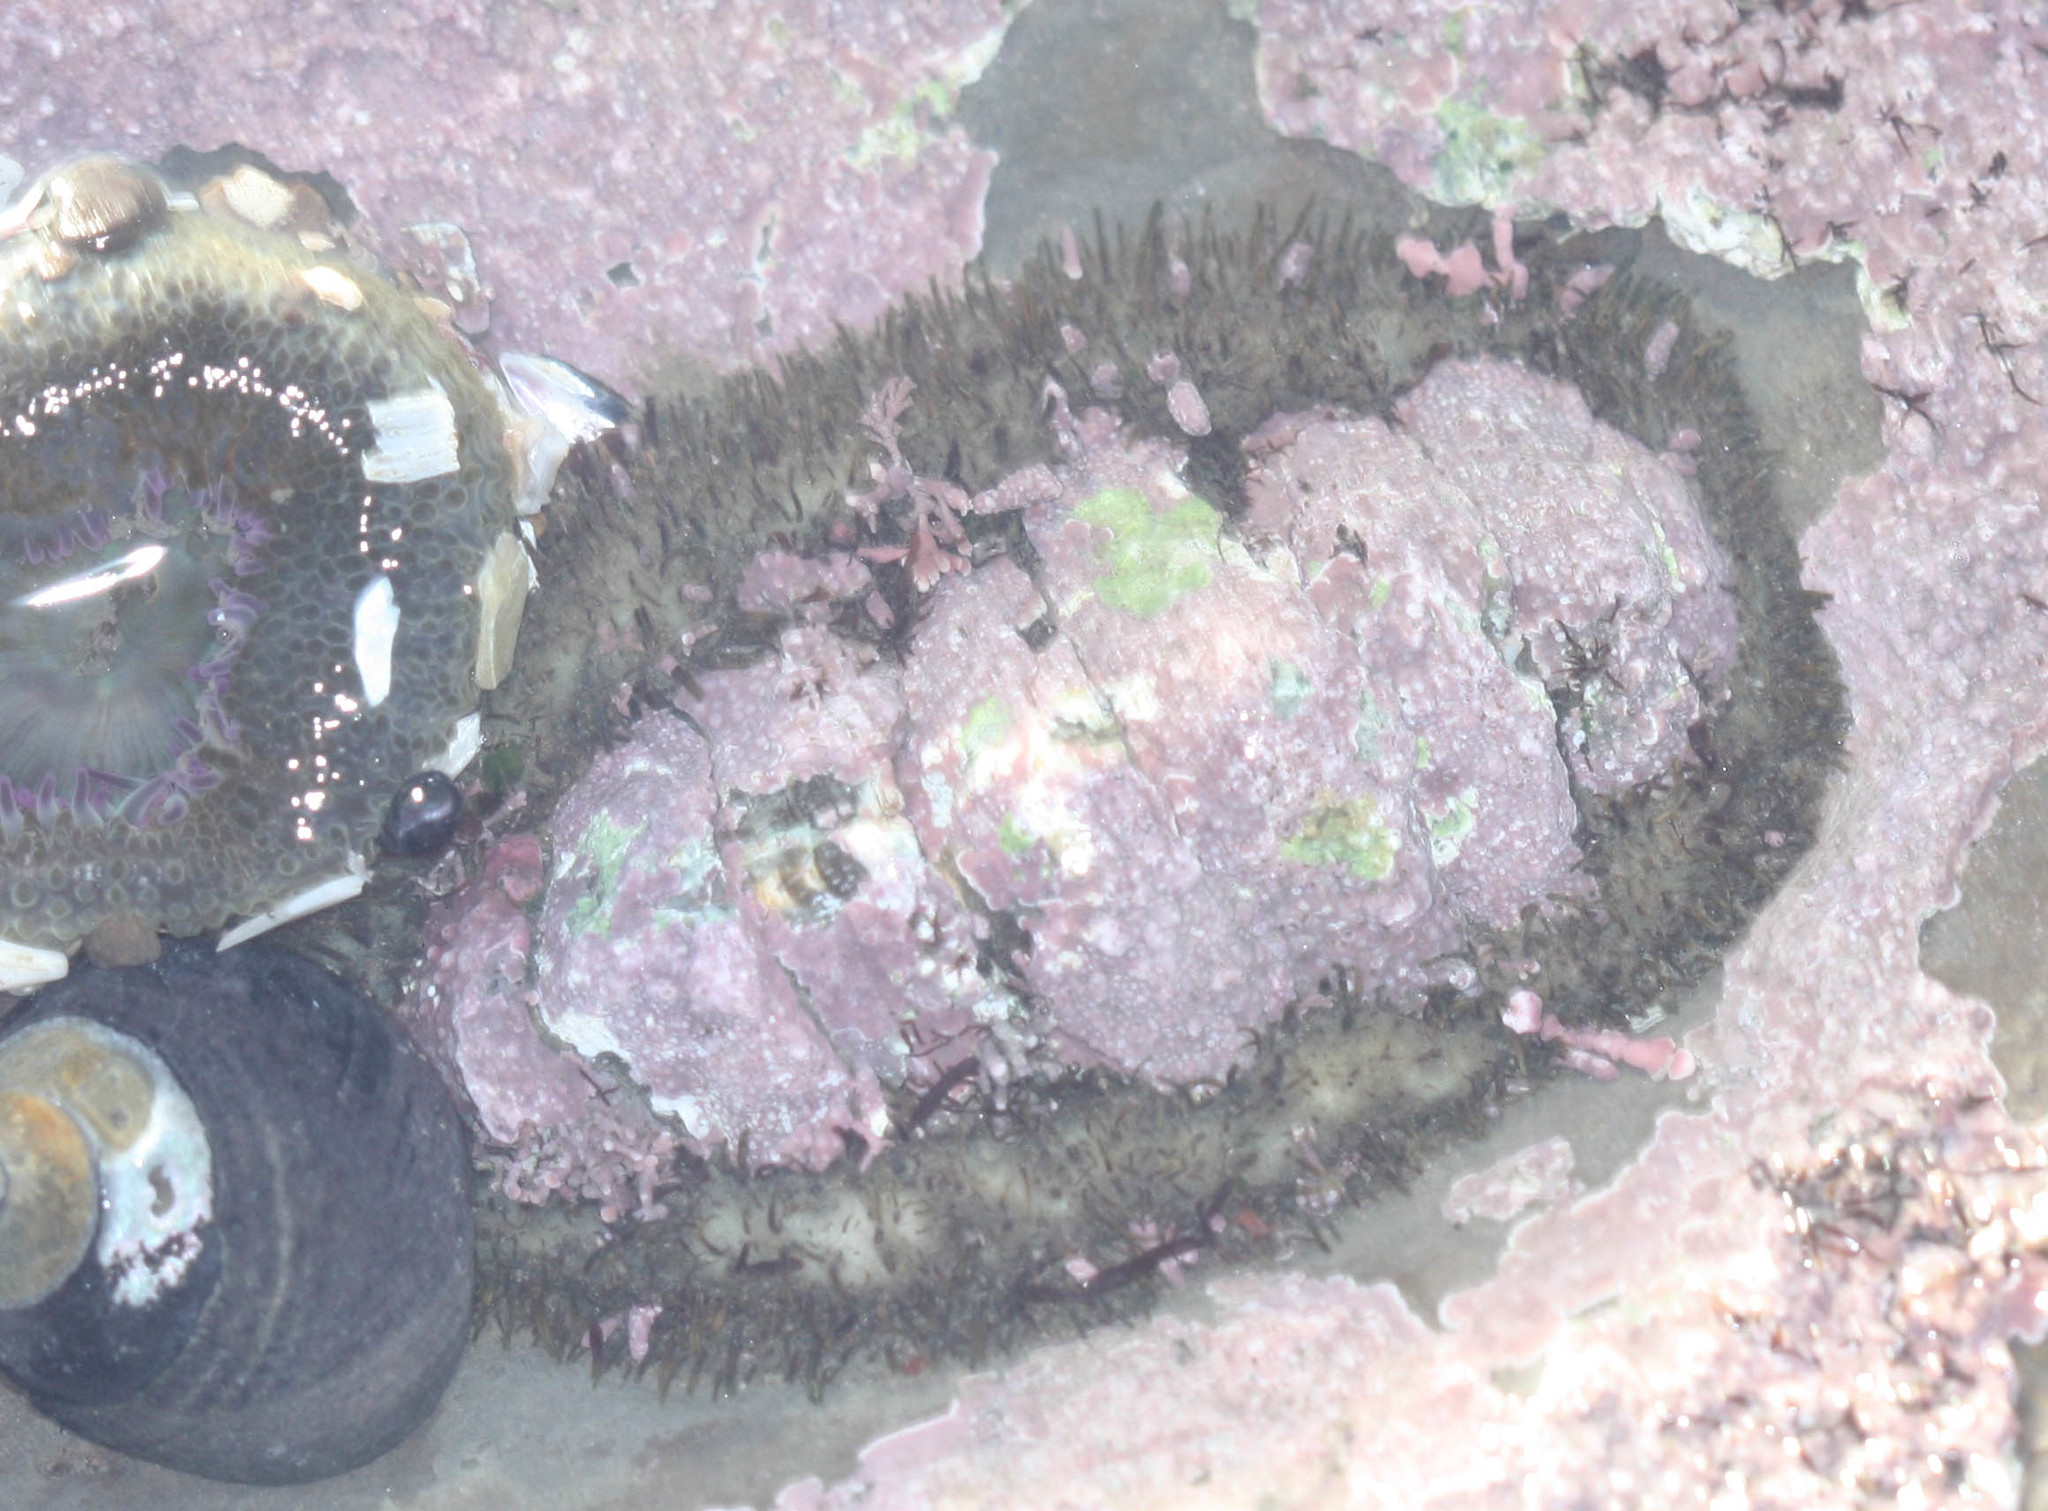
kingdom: Animalia
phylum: Mollusca
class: Polyplacophora
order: Chitonida
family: Mopaliidae
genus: Mopalia
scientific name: Mopalia muscosa
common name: Mossy chiton
